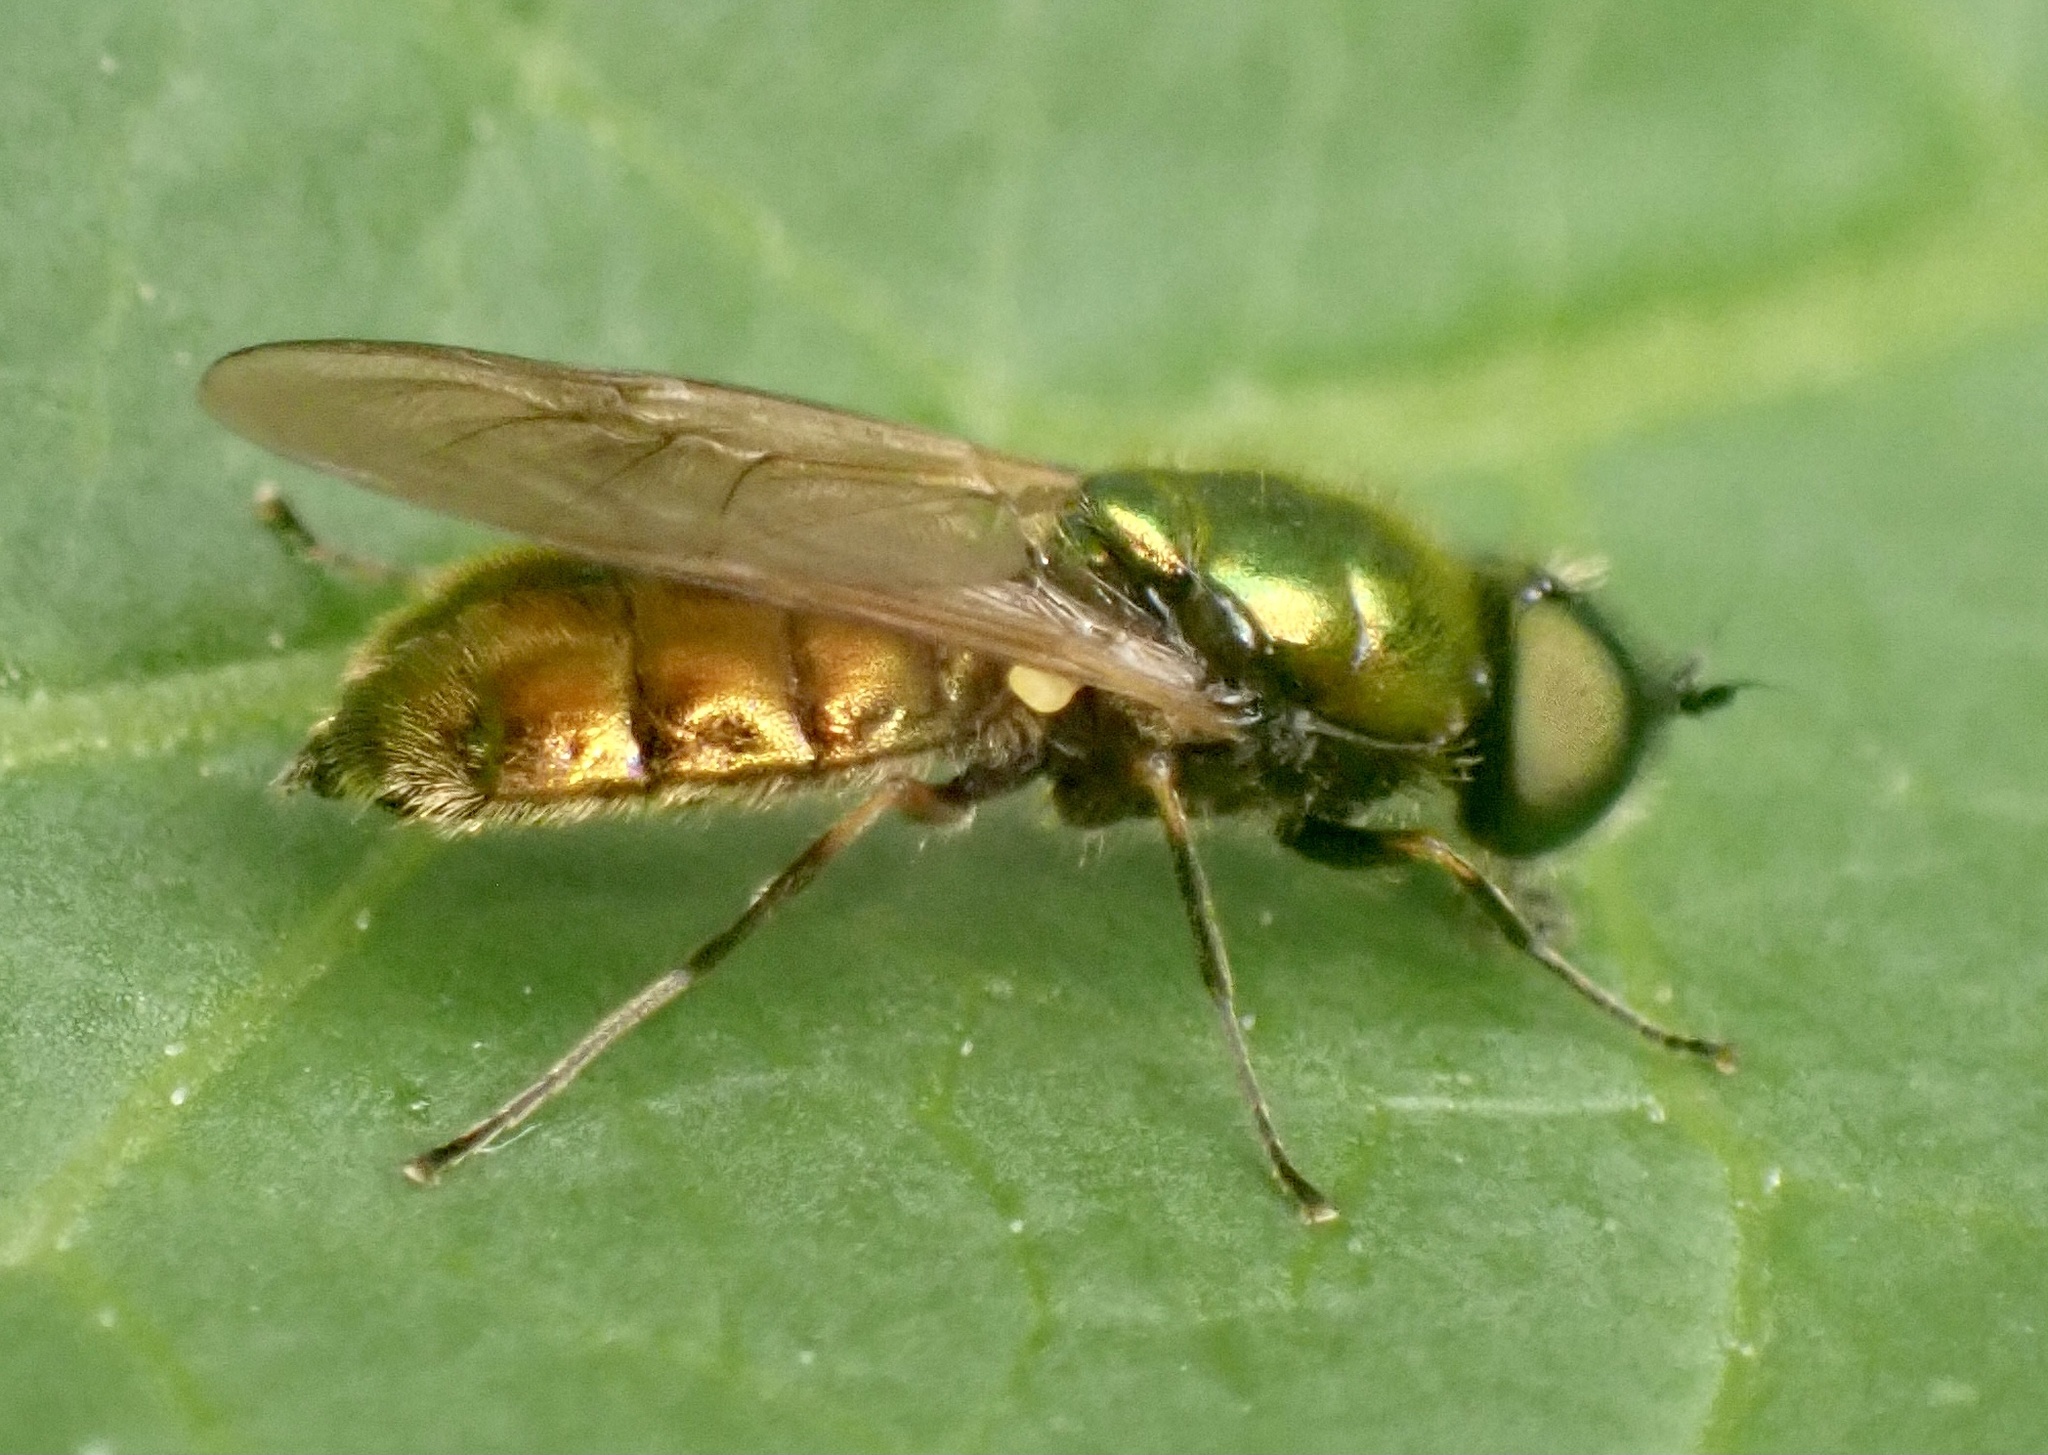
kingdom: Animalia
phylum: Arthropoda
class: Insecta
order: Diptera
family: Stratiomyidae
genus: Chloromyia
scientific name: Chloromyia formosa
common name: Soldier fly
